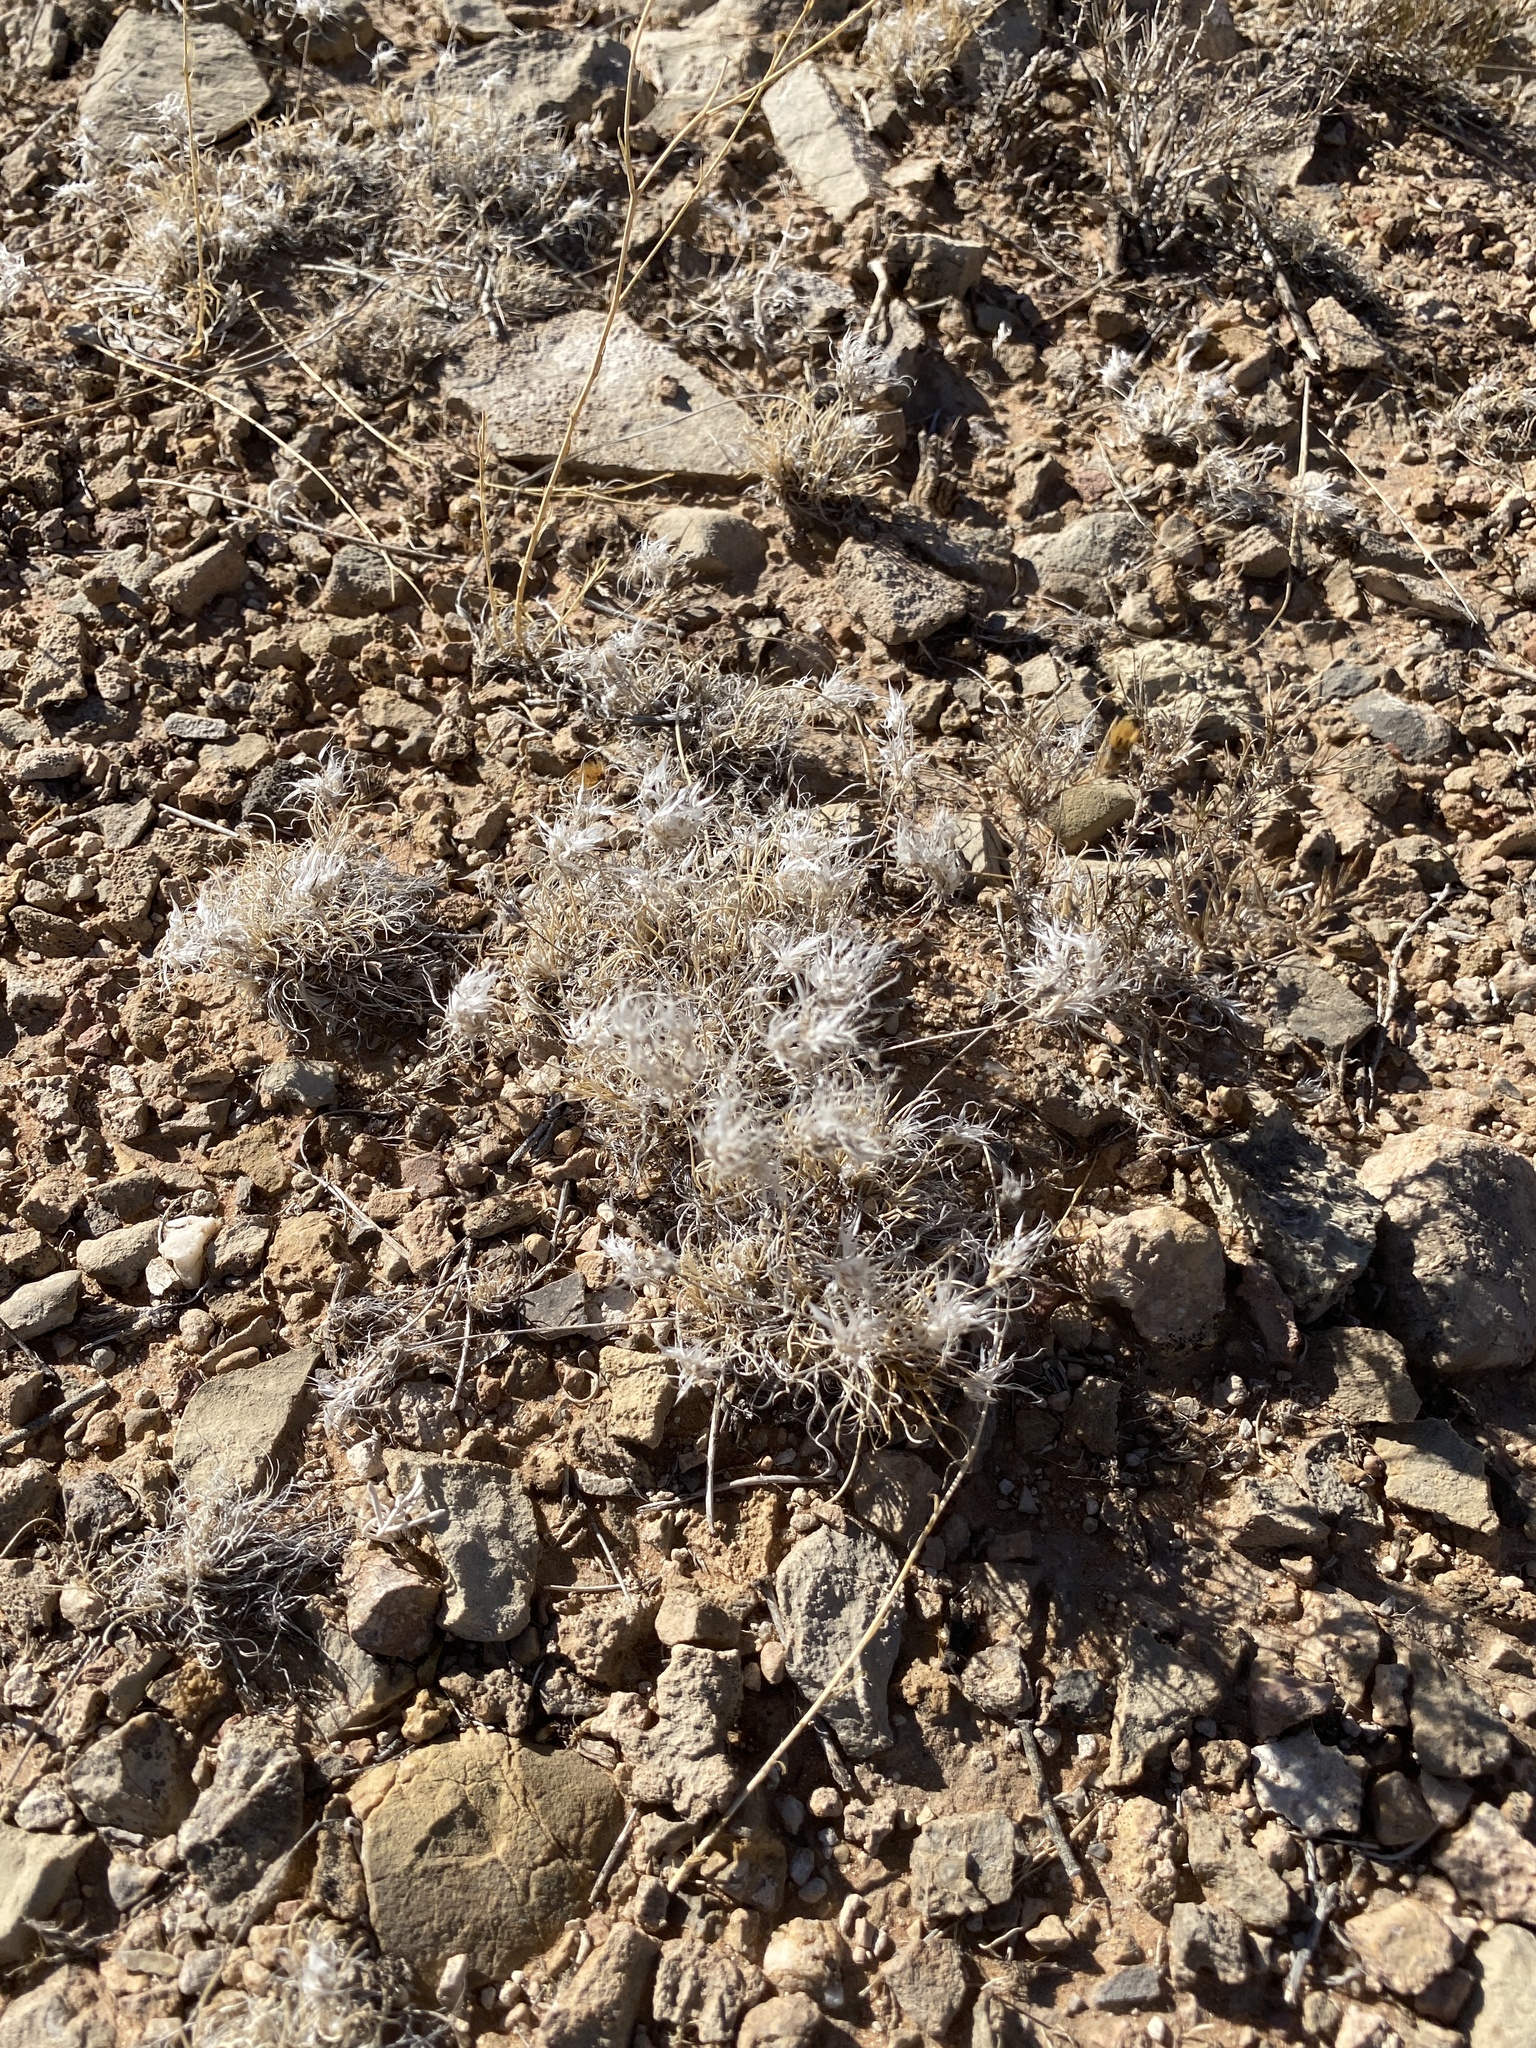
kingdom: Plantae
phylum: Tracheophyta
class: Liliopsida
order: Poales
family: Poaceae
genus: Dasyochloa
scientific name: Dasyochloa pulchella
